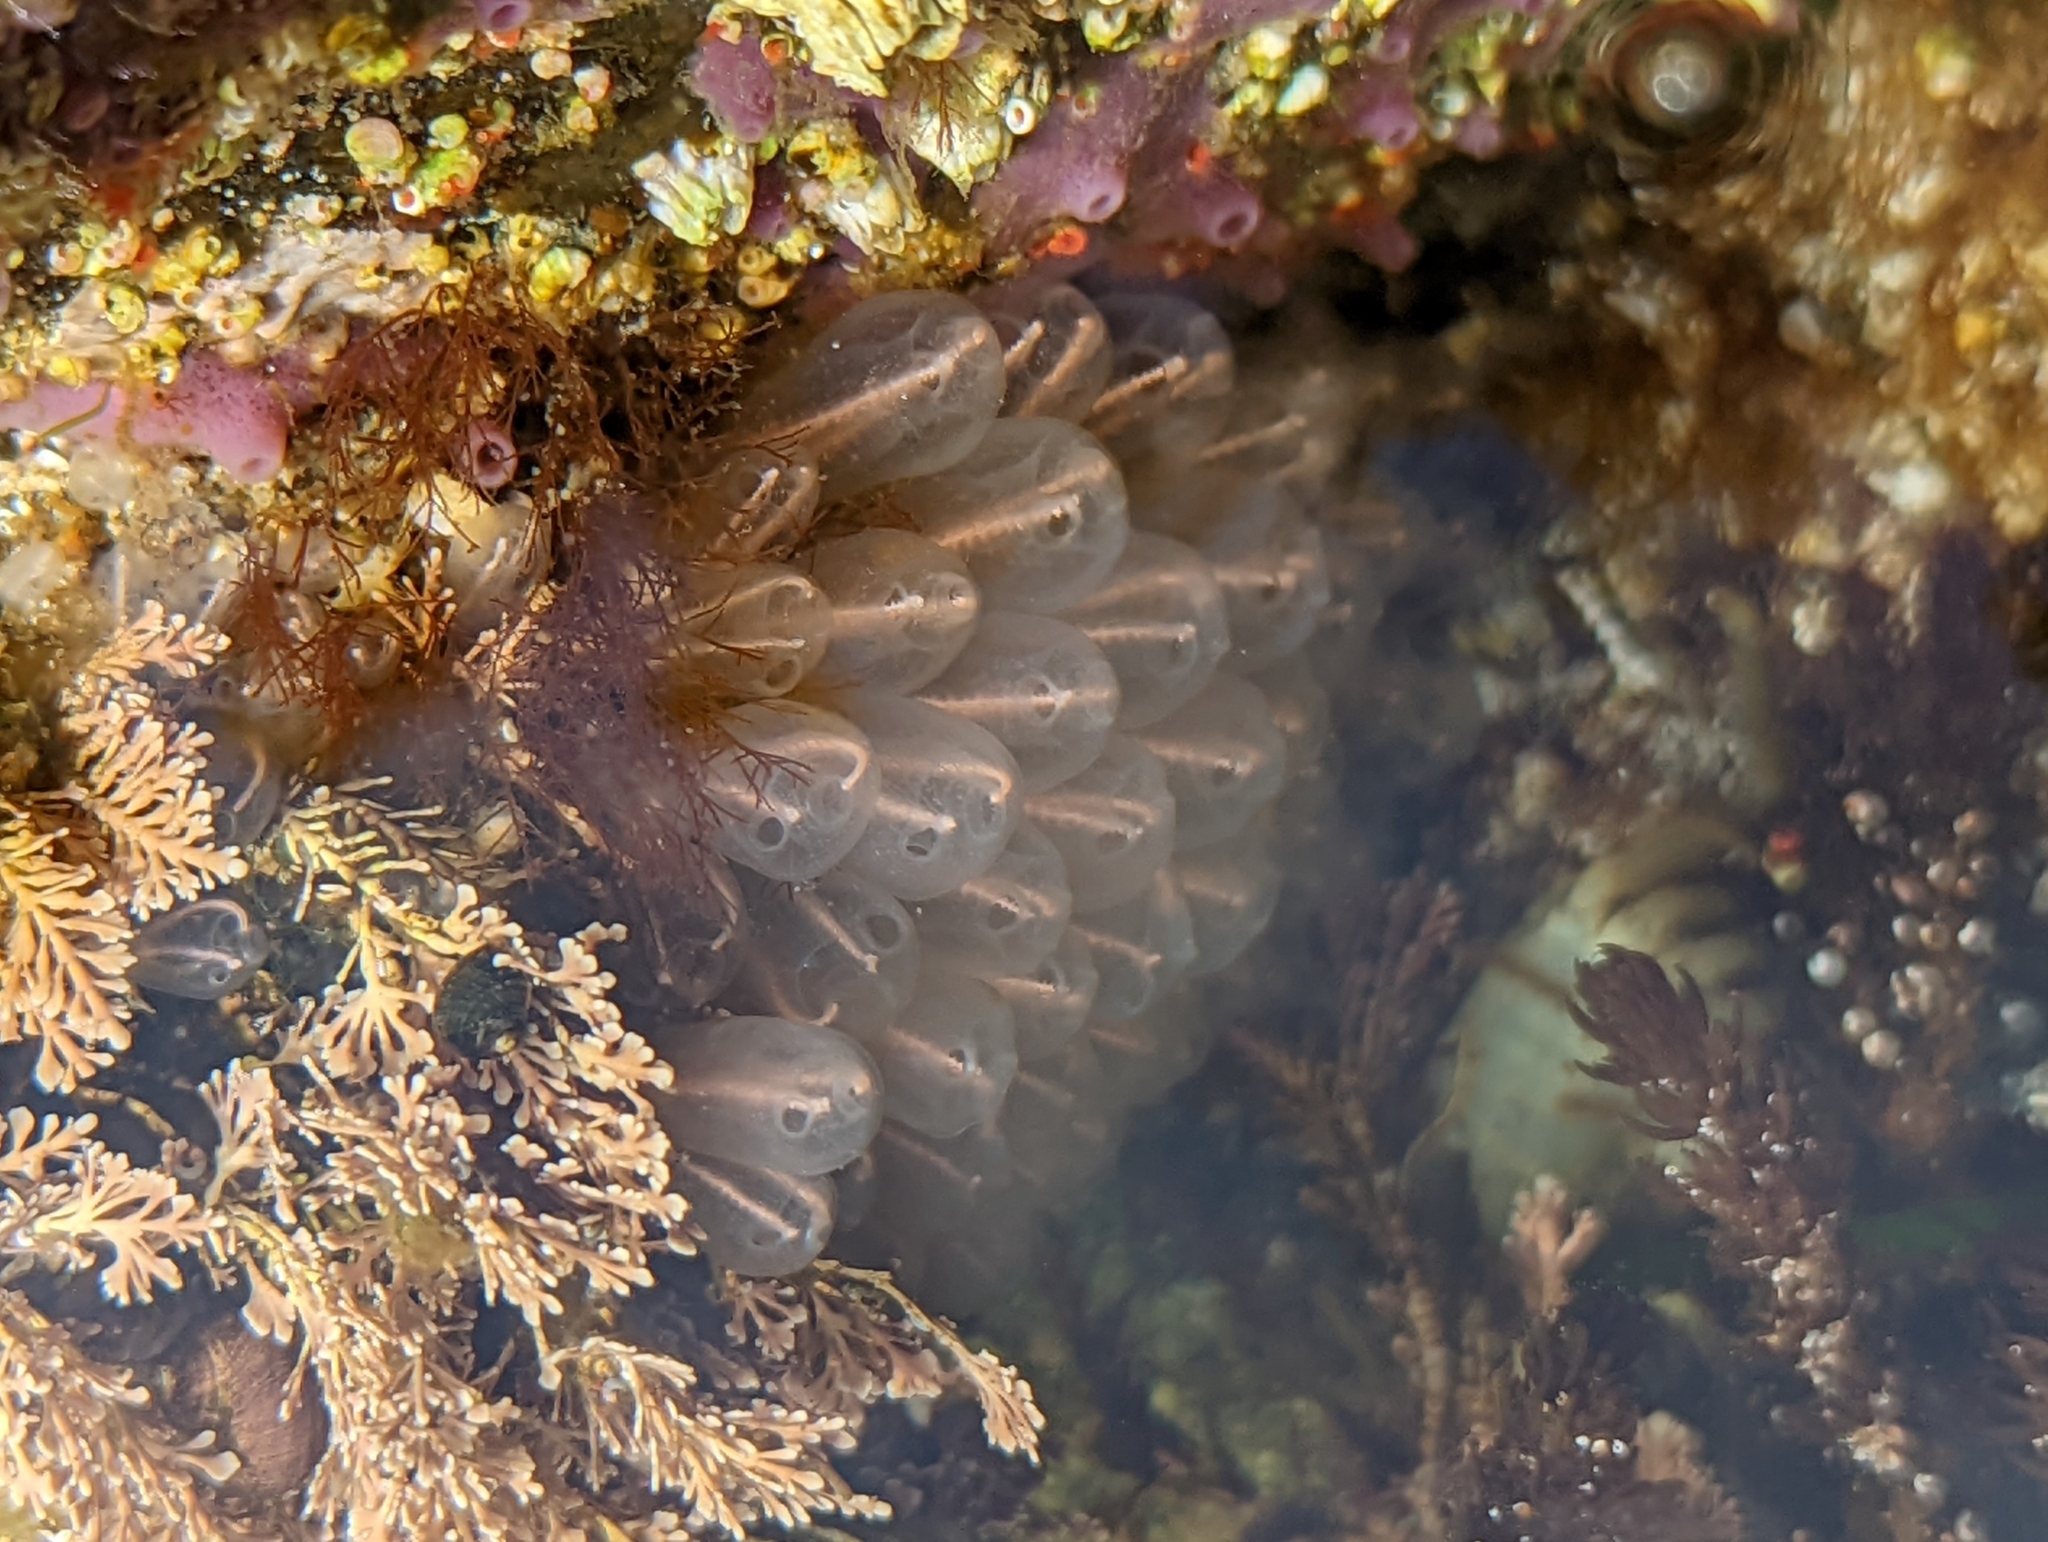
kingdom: Animalia
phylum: Chordata
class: Ascidiacea
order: Aplousobranchia
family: Clavelinidae
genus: Clavelina
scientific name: Clavelina huntsmani
